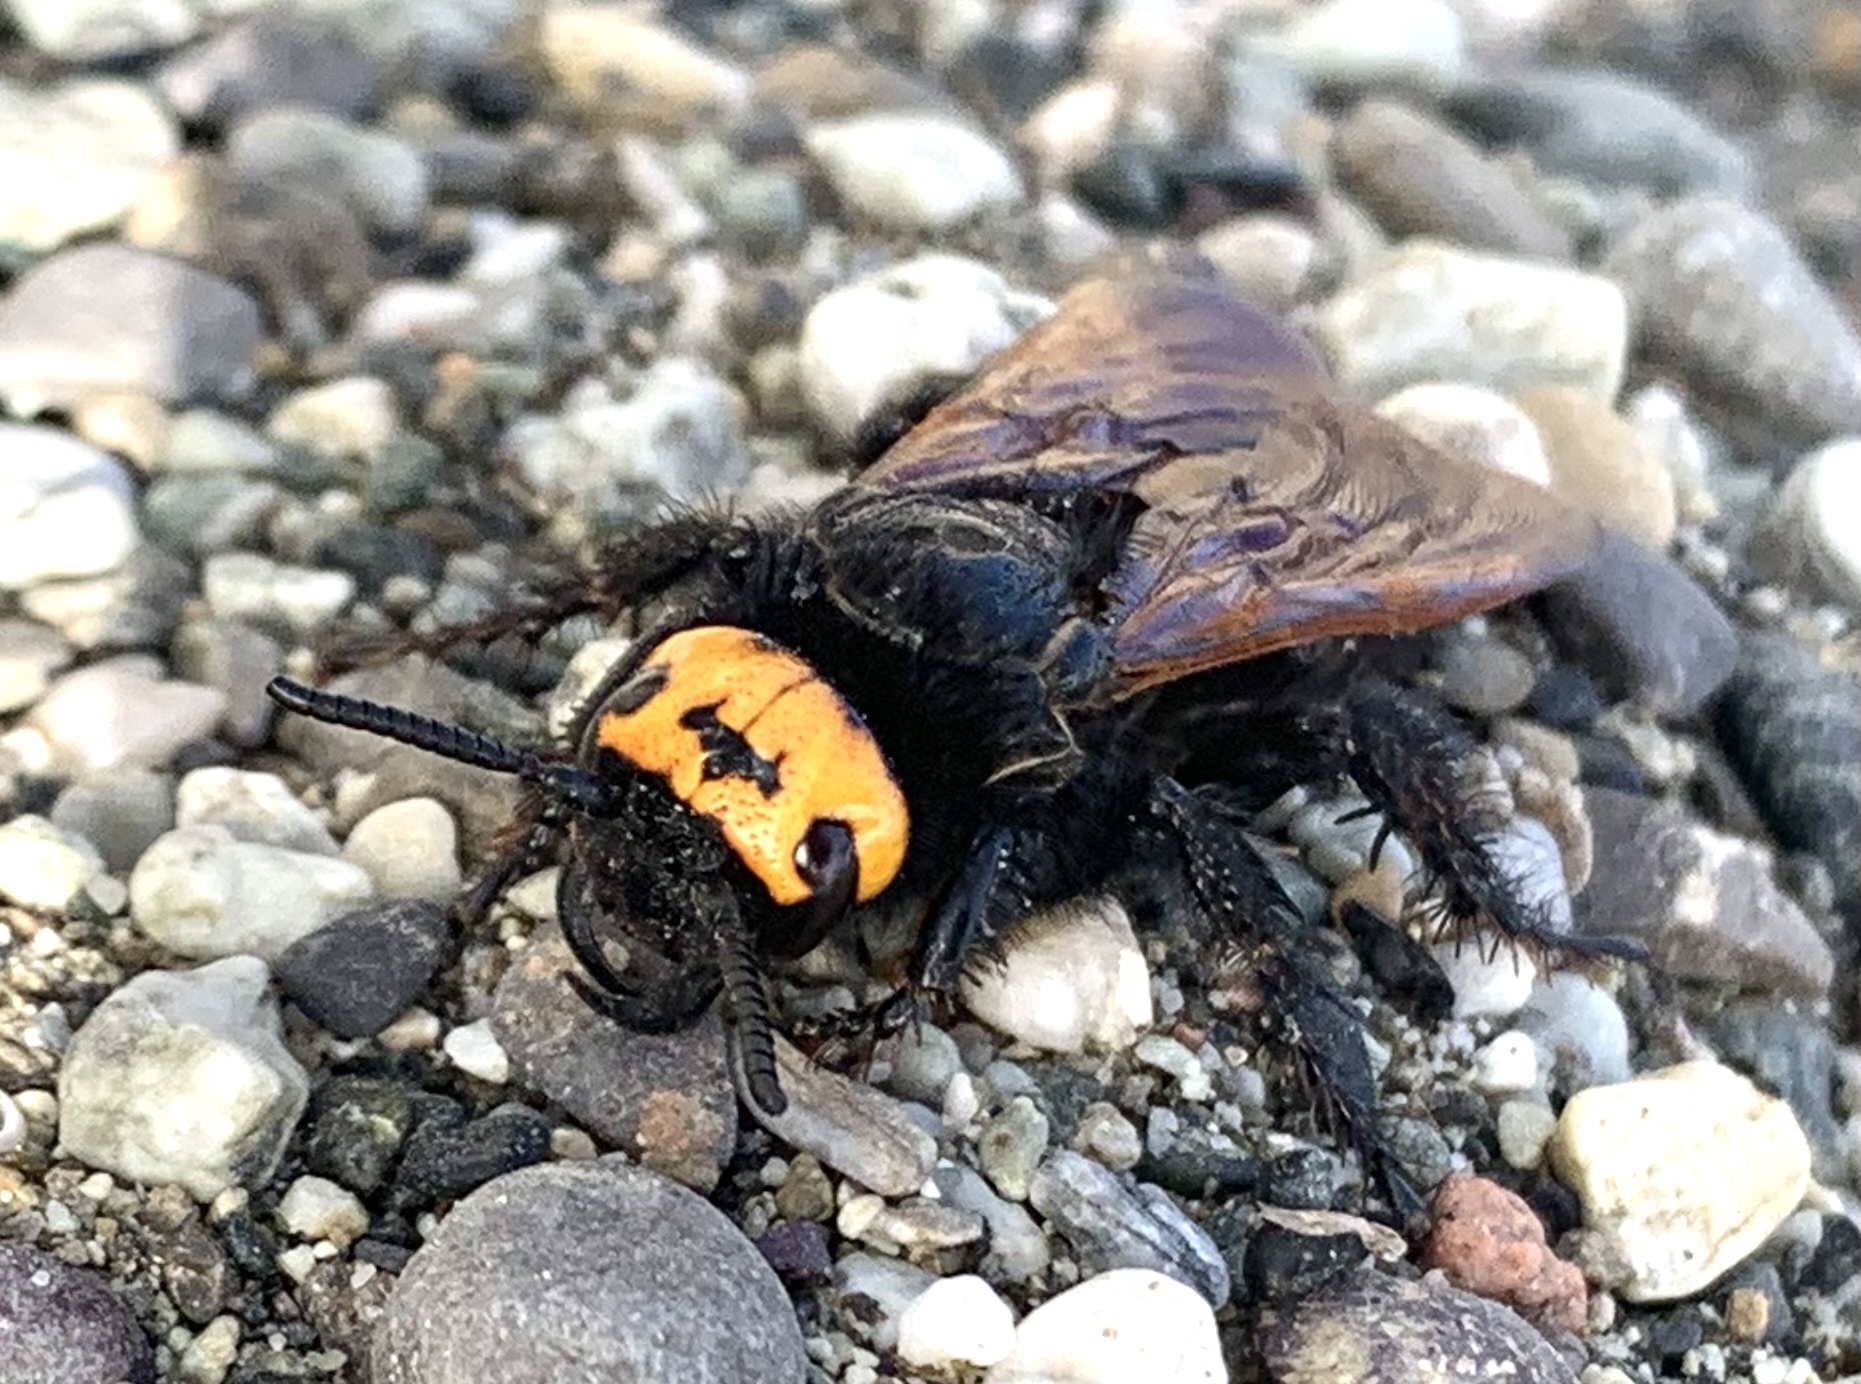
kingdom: Animalia
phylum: Arthropoda
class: Insecta
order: Hymenoptera
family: Scoliidae
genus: Megascolia
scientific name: Megascolia maculata
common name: Mammoth wasp
